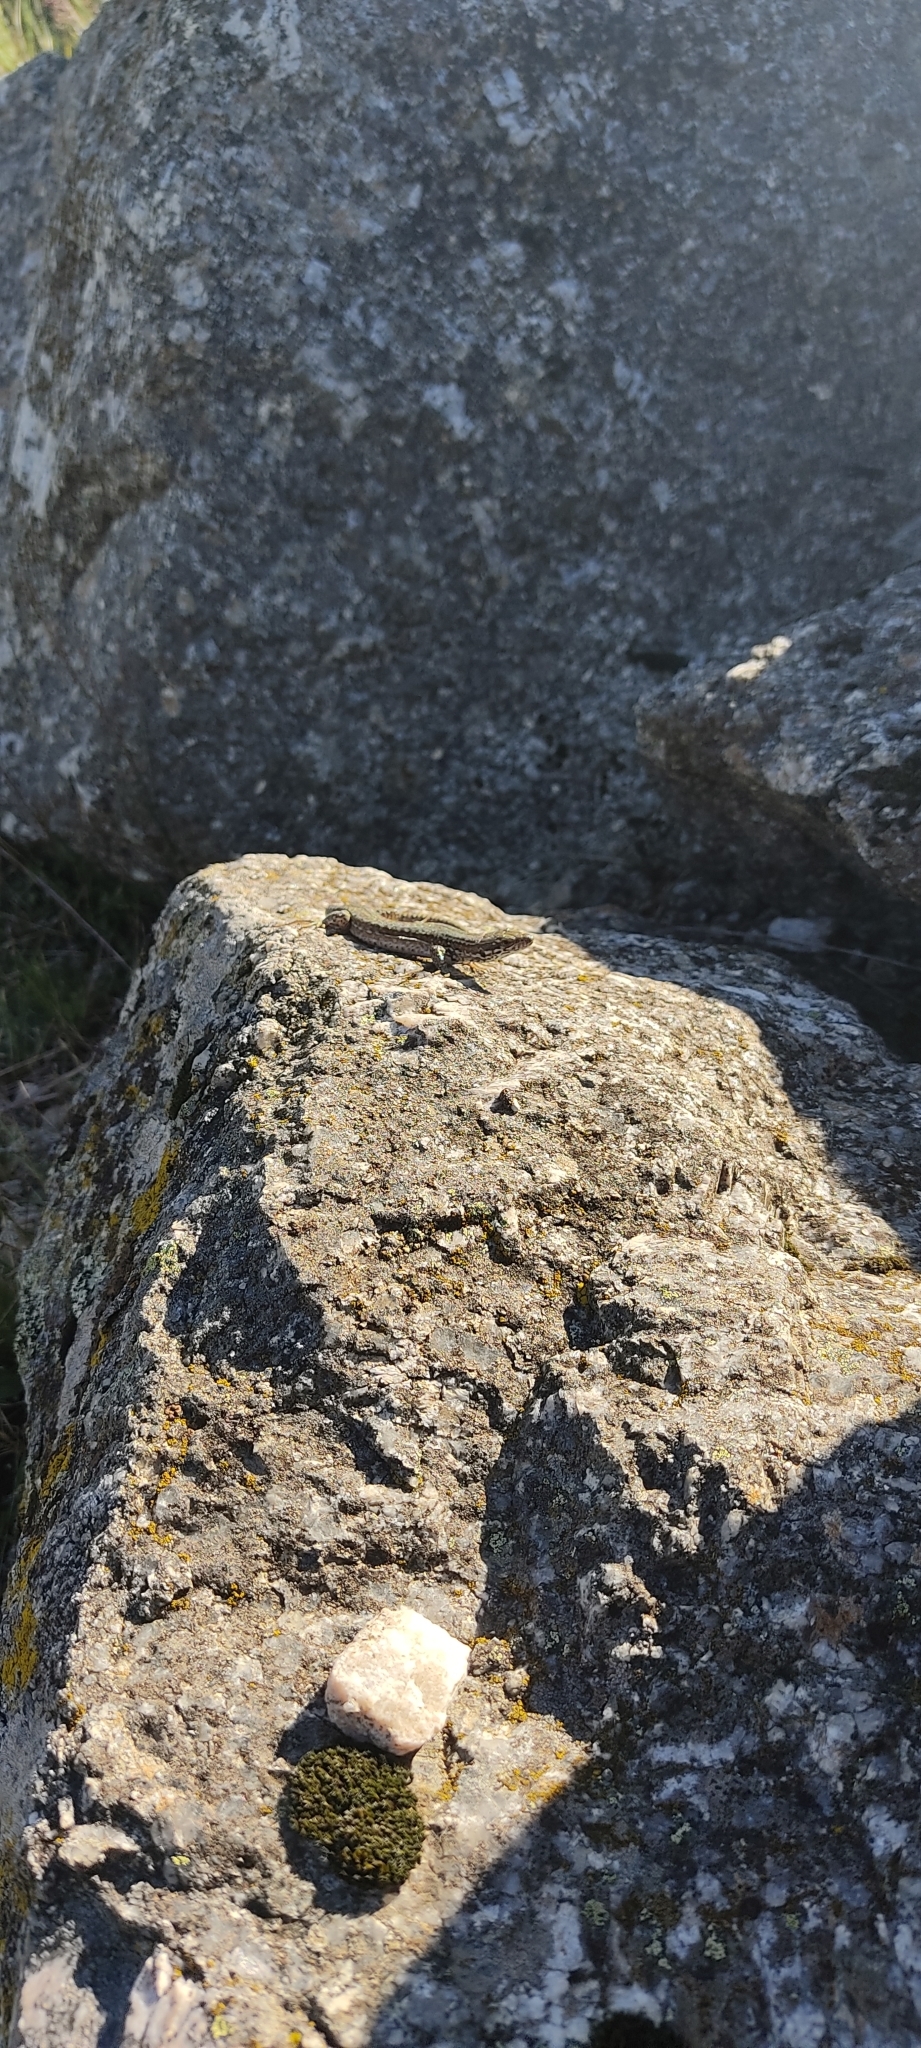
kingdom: Animalia
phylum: Chordata
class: Squamata
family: Lacertidae
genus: Podarcis
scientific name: Podarcis muralis
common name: Common wall lizard
